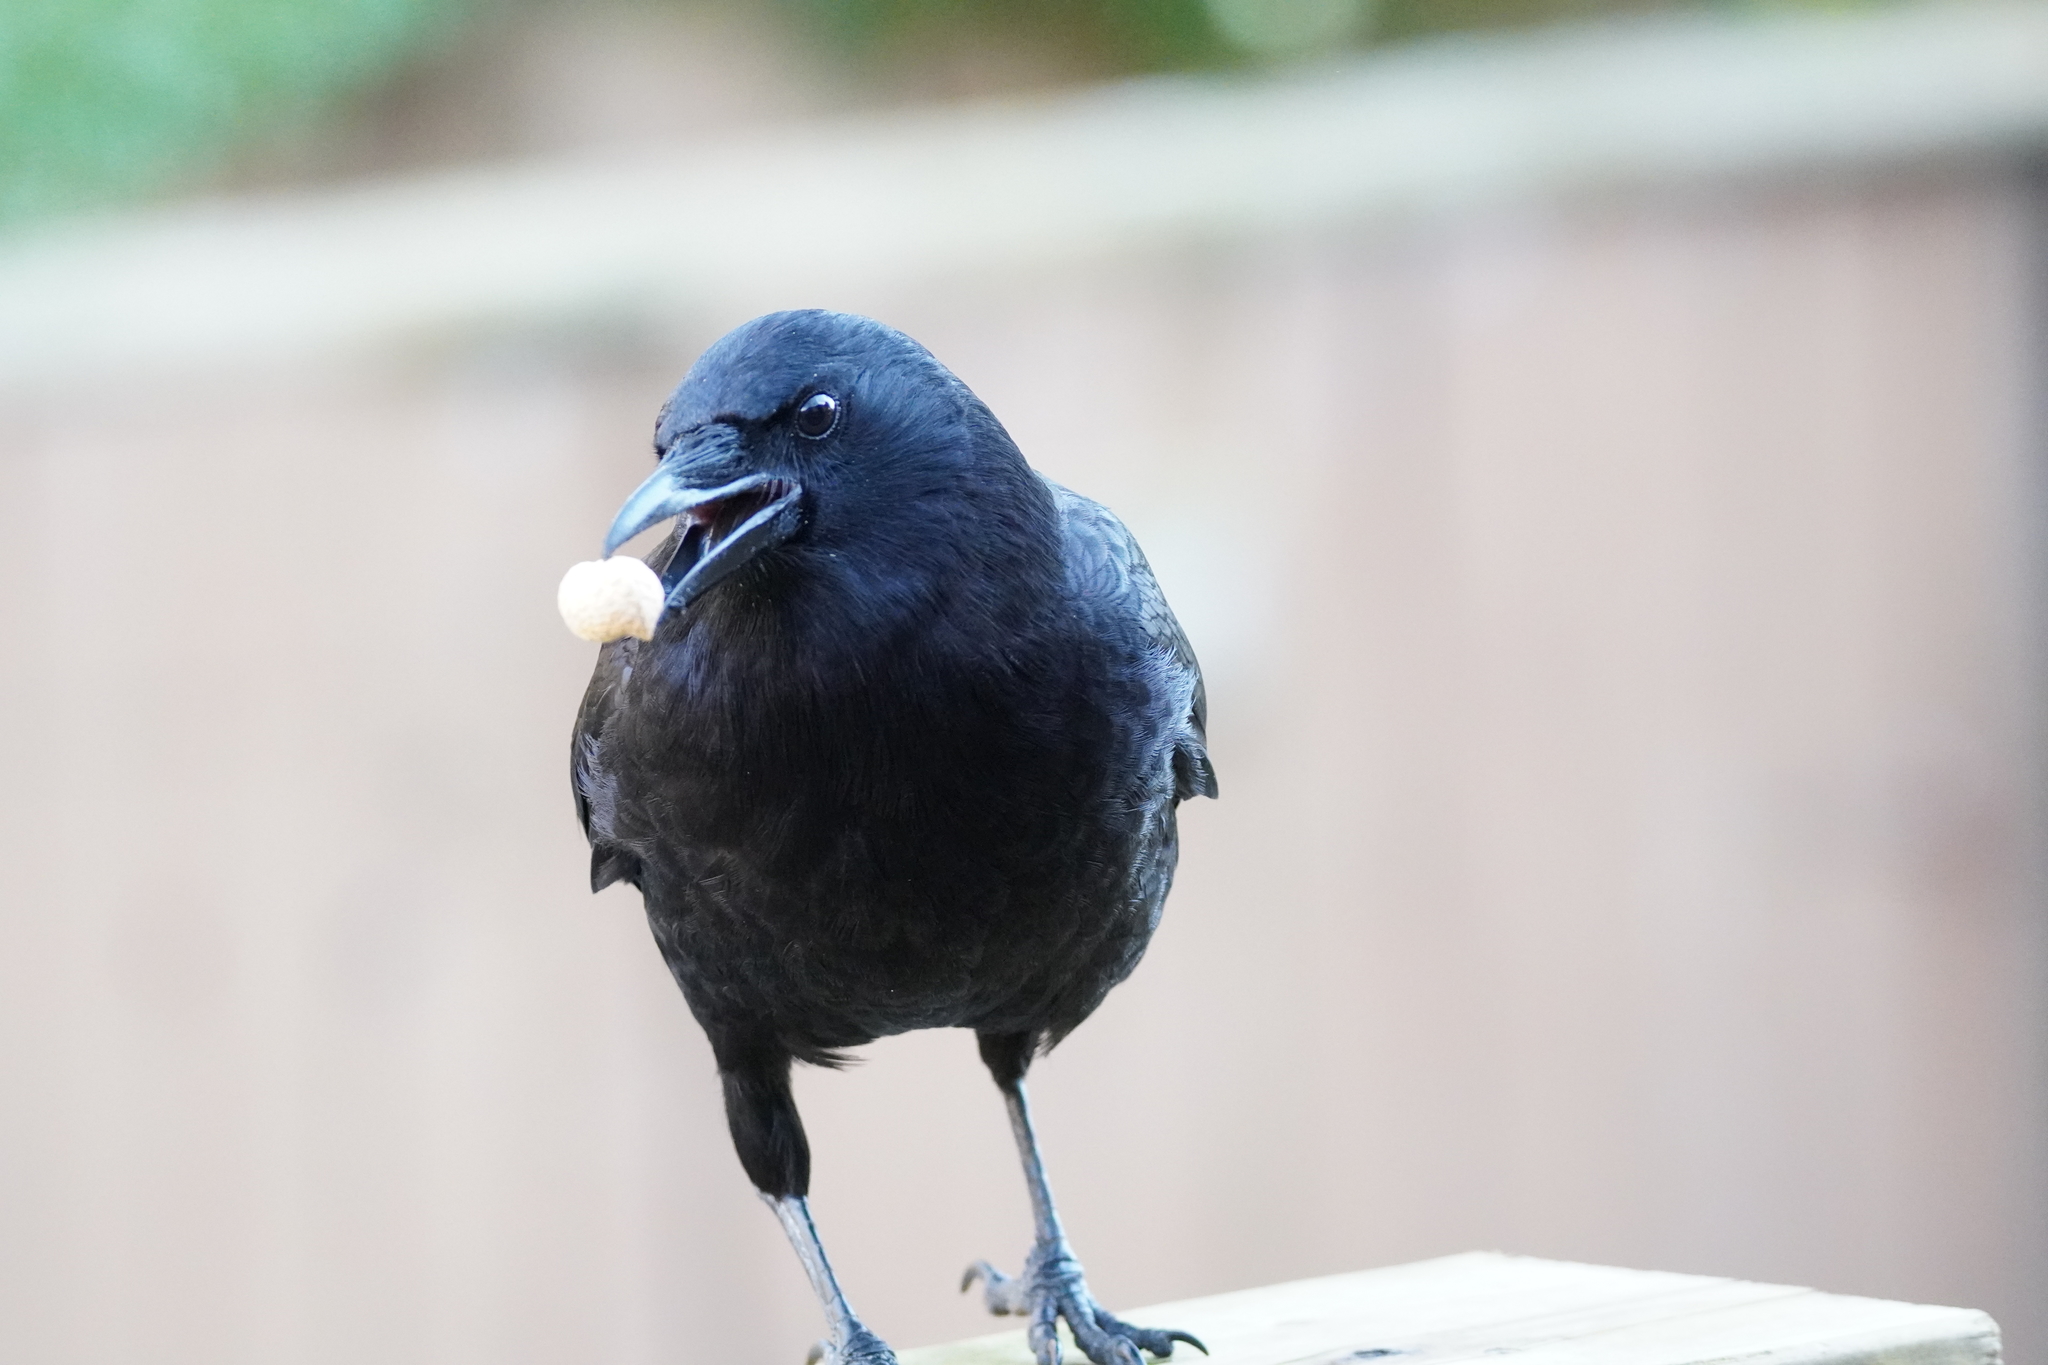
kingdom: Animalia
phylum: Chordata
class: Aves
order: Passeriformes
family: Corvidae
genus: Corvus
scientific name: Corvus brachyrhynchos
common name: American crow
